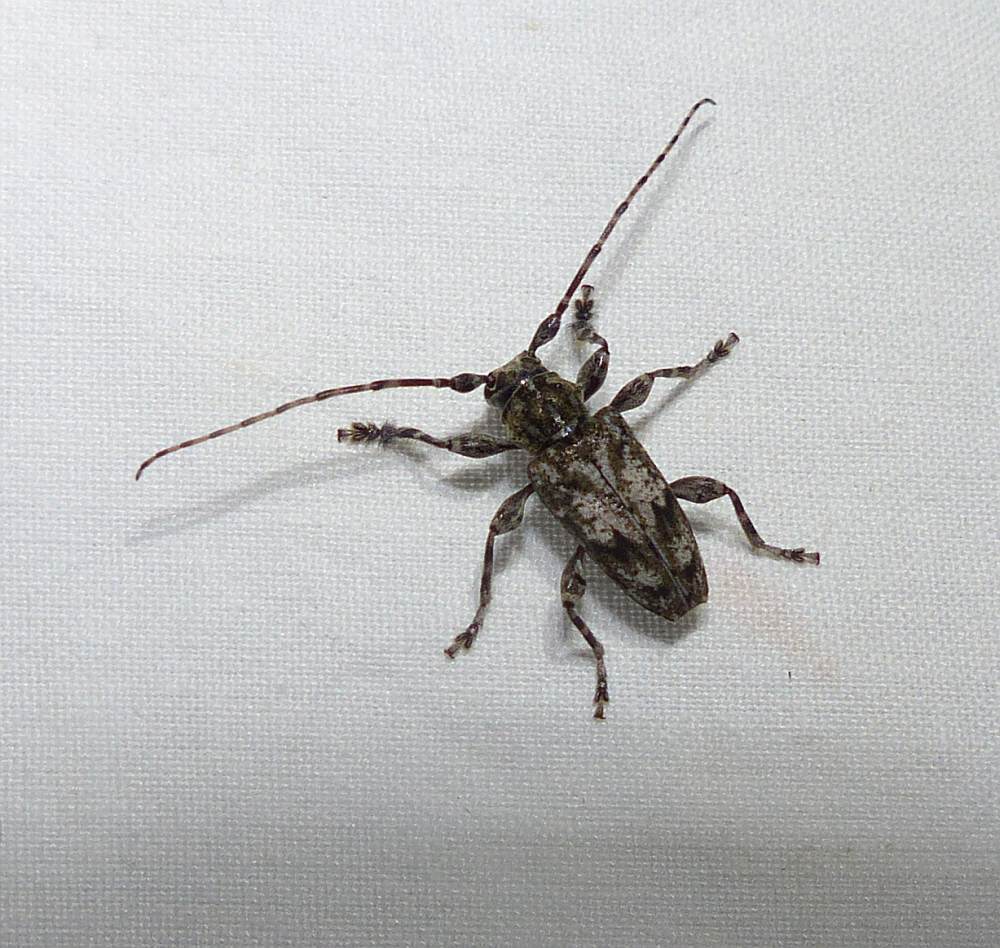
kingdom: Animalia
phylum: Arthropoda
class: Insecta
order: Coleoptera
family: Cerambycidae
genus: Aegomorphus
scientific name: Aegomorphus modestus
